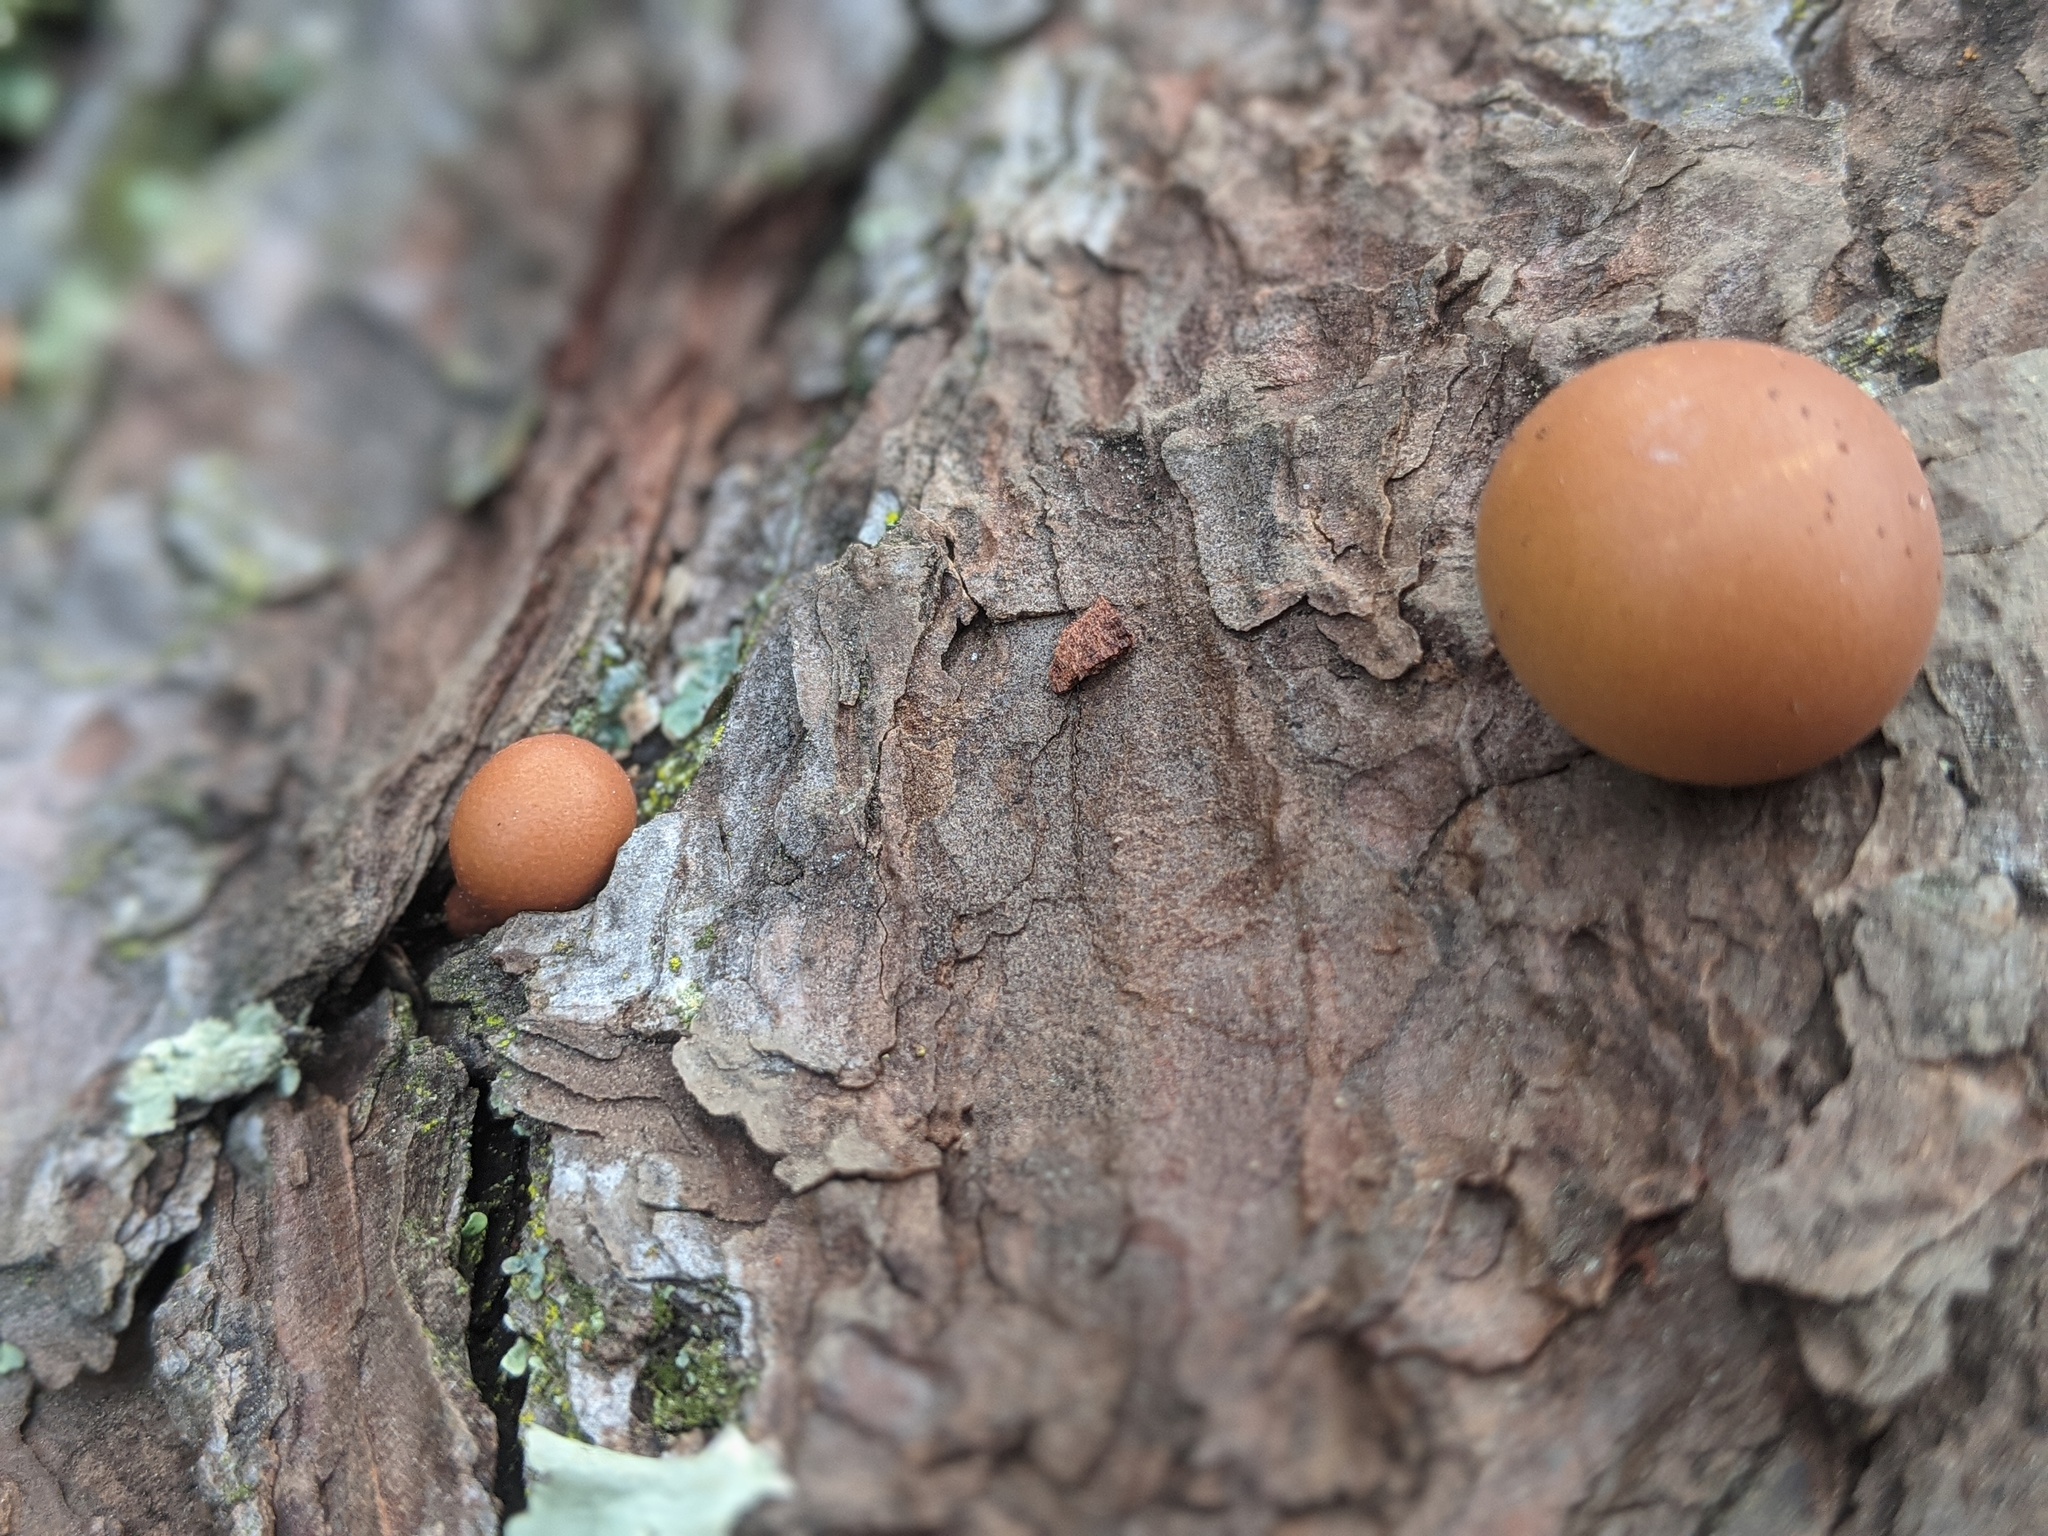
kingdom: Fungi
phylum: Basidiomycota
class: Agaricomycetes
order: Polyporales
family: Polyporaceae
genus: Cryptoporus
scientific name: Cryptoporus volvatus
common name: Veiled polypore
